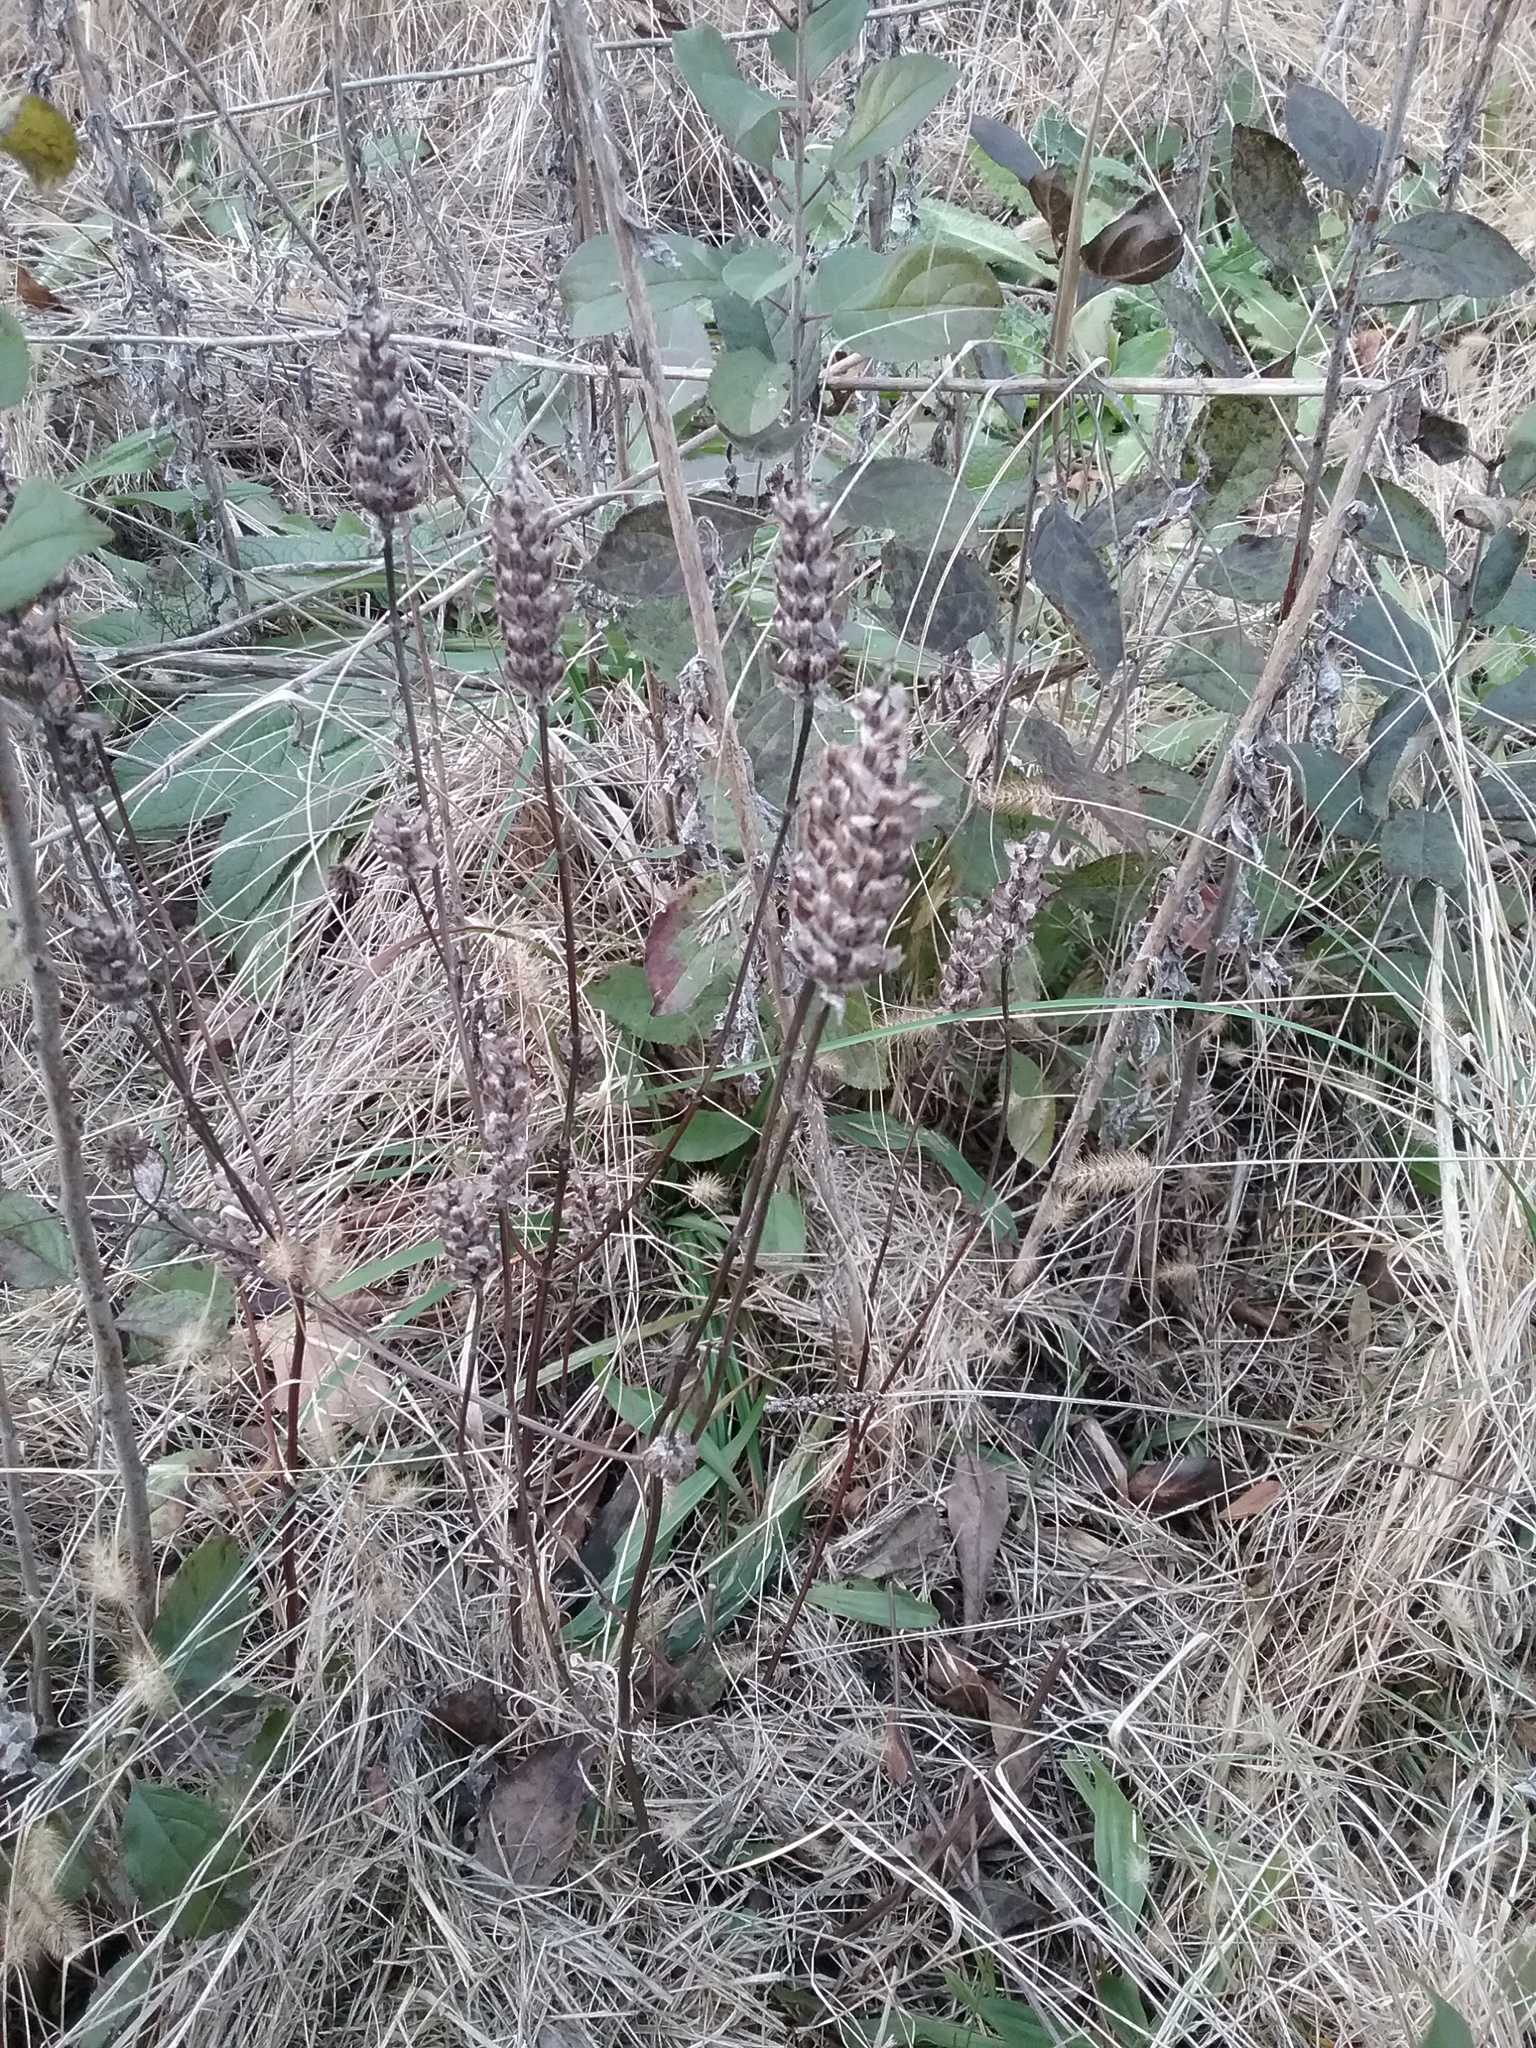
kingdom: Plantae
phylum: Tracheophyta
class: Magnoliopsida
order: Lamiales
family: Lamiaceae
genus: Prunella
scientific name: Prunella vulgaris
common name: Heal-all
